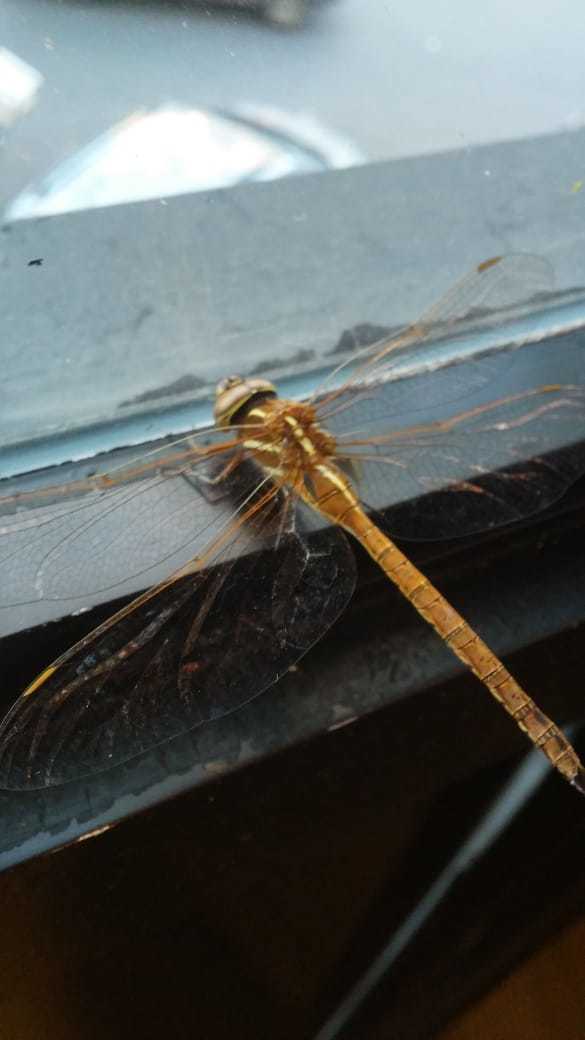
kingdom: Animalia
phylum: Arthropoda
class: Insecta
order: Odonata
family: Aeshnidae
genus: Rhionaeschna
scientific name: Rhionaeschna confusa
